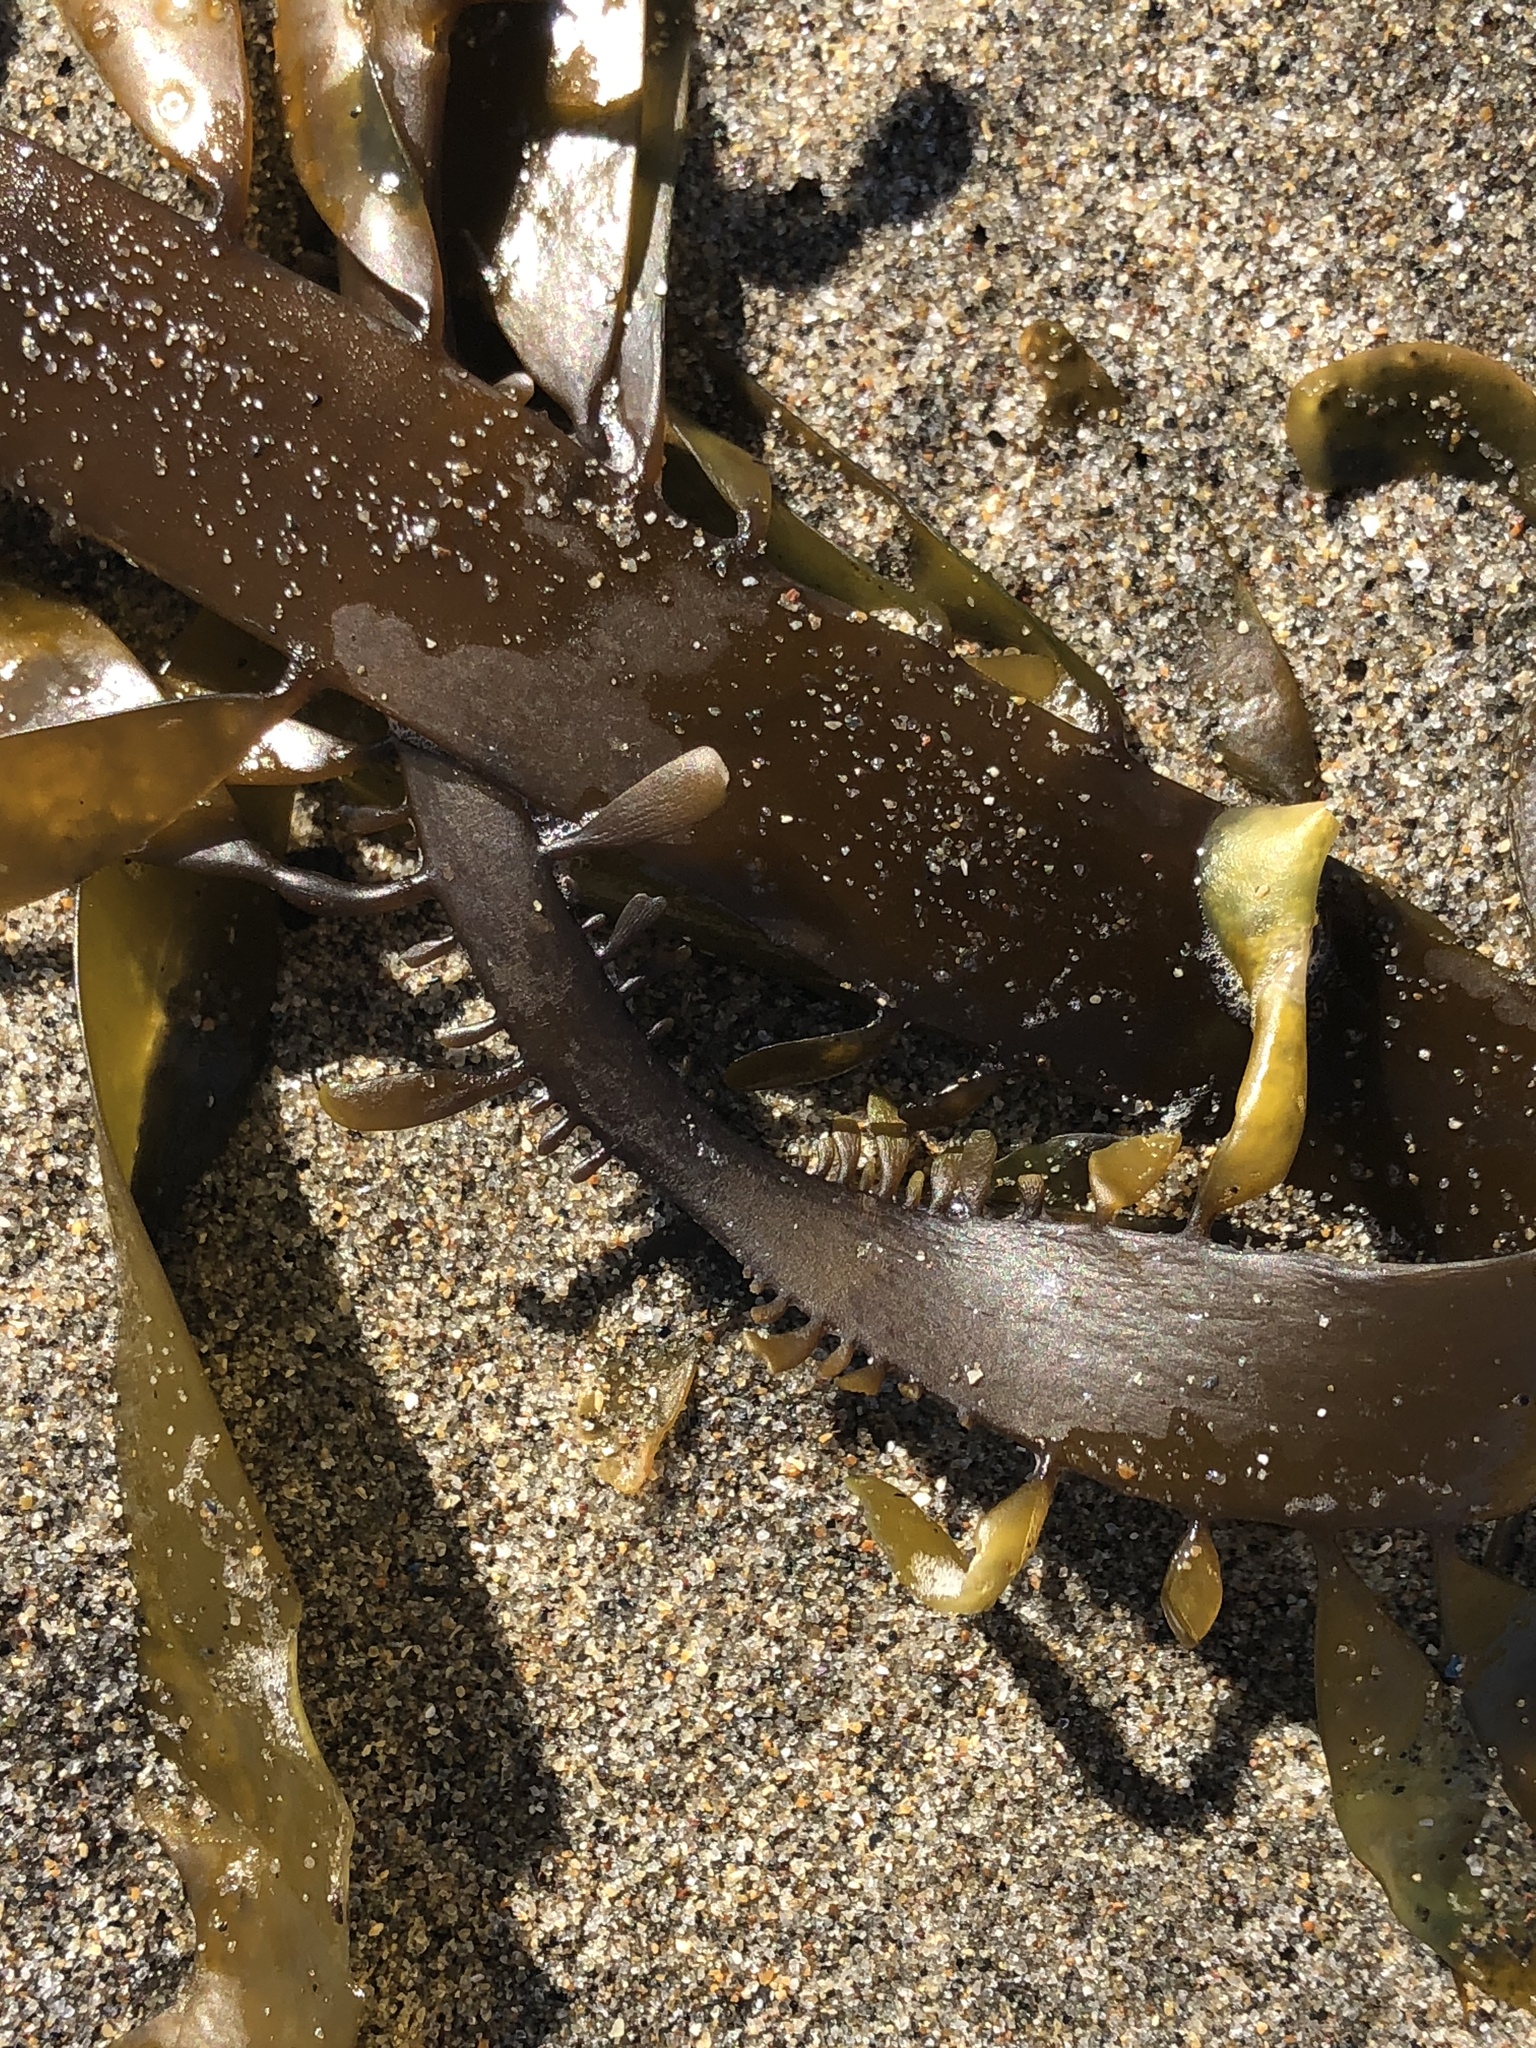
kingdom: Chromista
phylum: Ochrophyta
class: Phaeophyceae
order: Laminariales
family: Lessoniaceae
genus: Egregia
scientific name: Egregia menziesii
